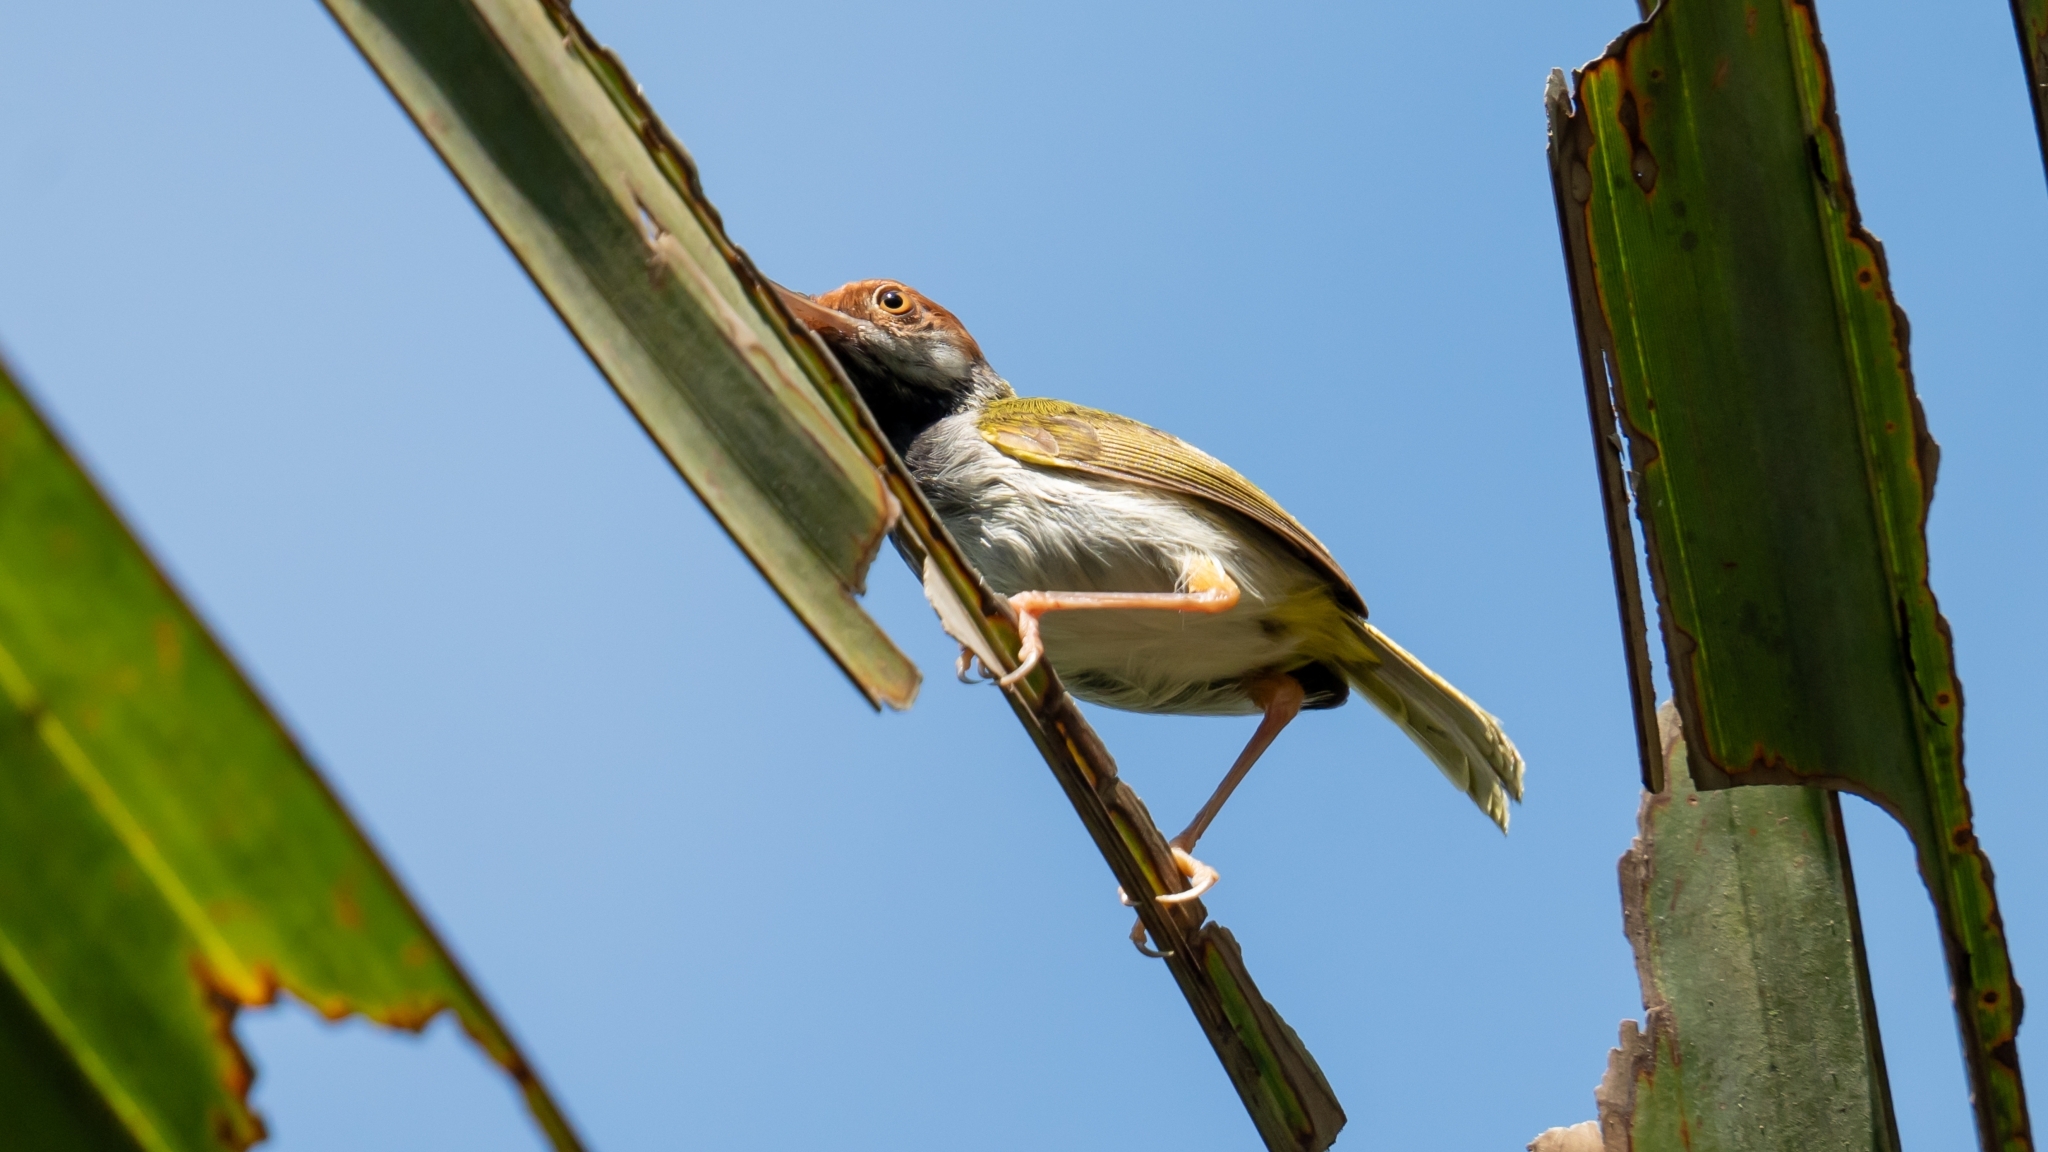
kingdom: Animalia
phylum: Chordata
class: Aves
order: Passeriformes
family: Cisticolidae
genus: Orthotomus
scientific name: Orthotomus atrogularis
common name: Dark-necked tailorbird
